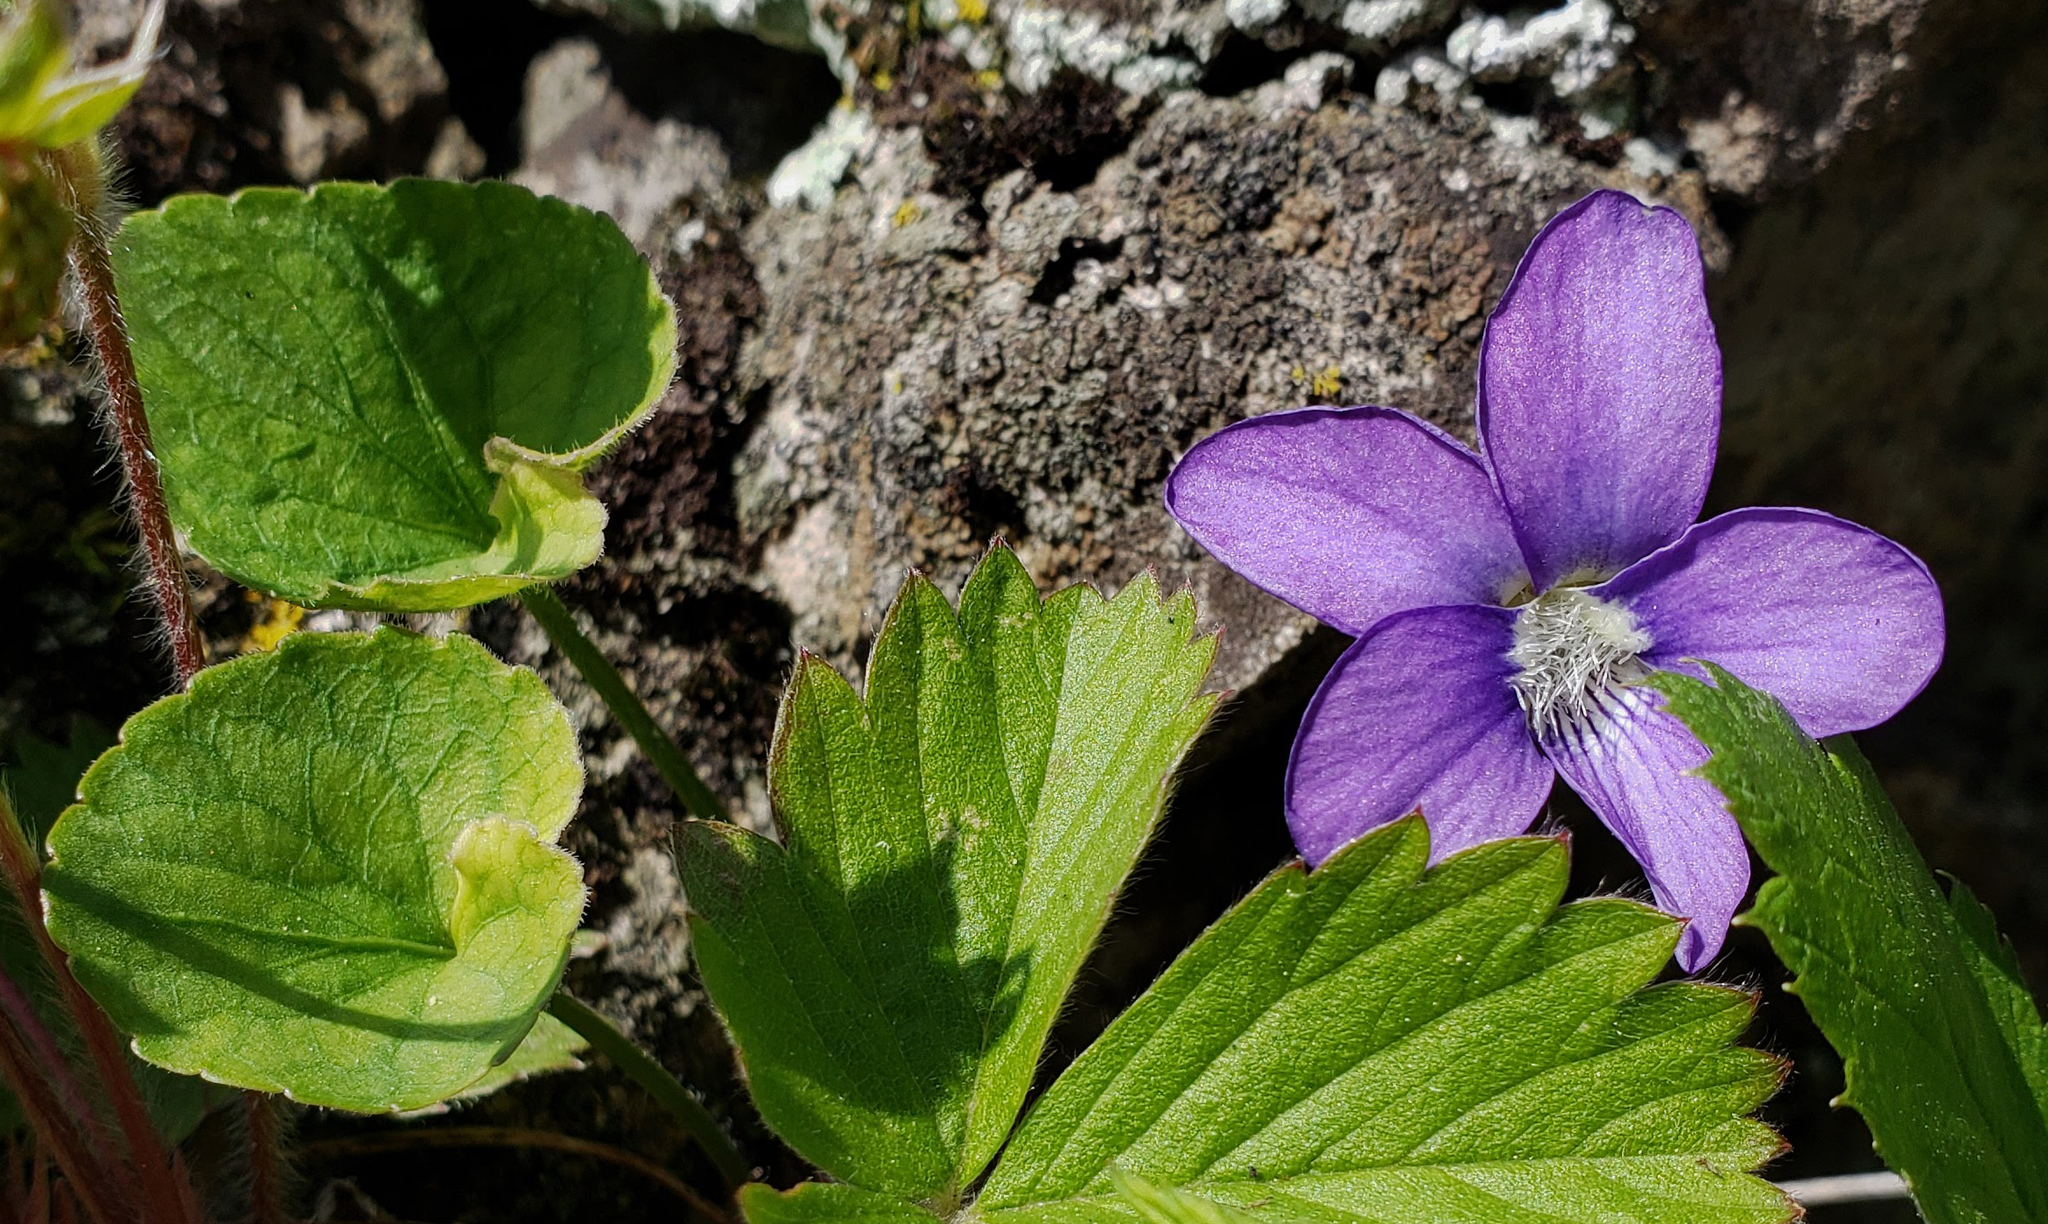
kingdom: Plantae
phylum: Tracheophyta
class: Magnoliopsida
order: Malpighiales
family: Violaceae
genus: Viola
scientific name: Viola sororia
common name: Dooryard violet
